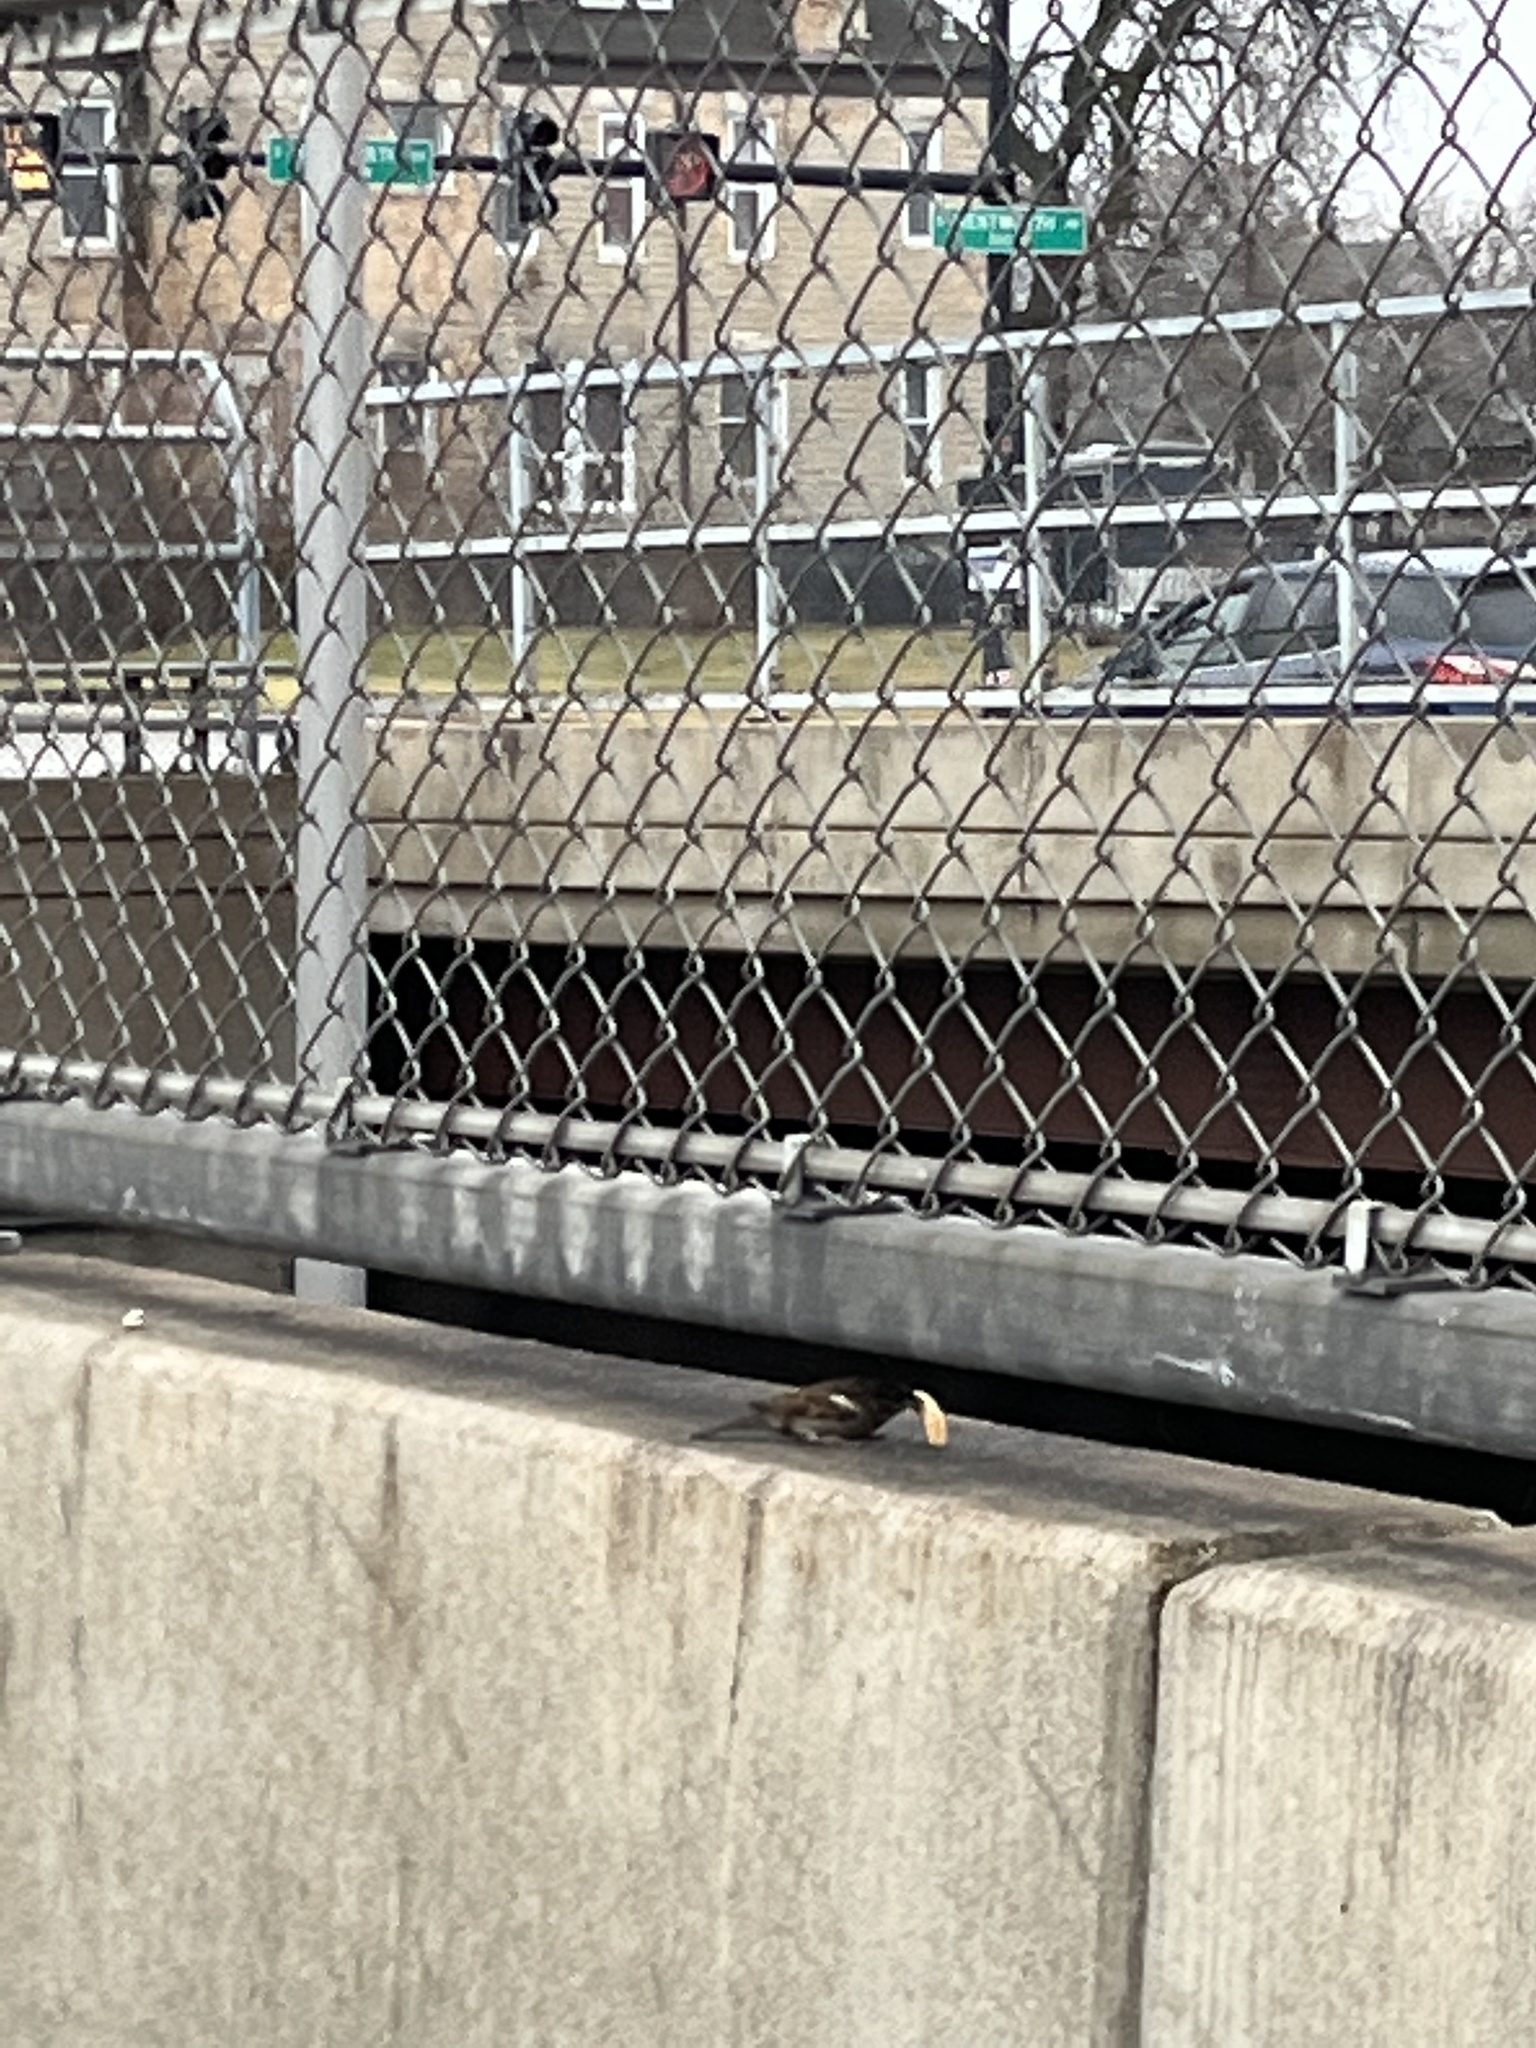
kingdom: Animalia
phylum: Chordata
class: Aves
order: Passeriformes
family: Passeridae
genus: Passer
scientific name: Passer domesticus
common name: House sparrow
